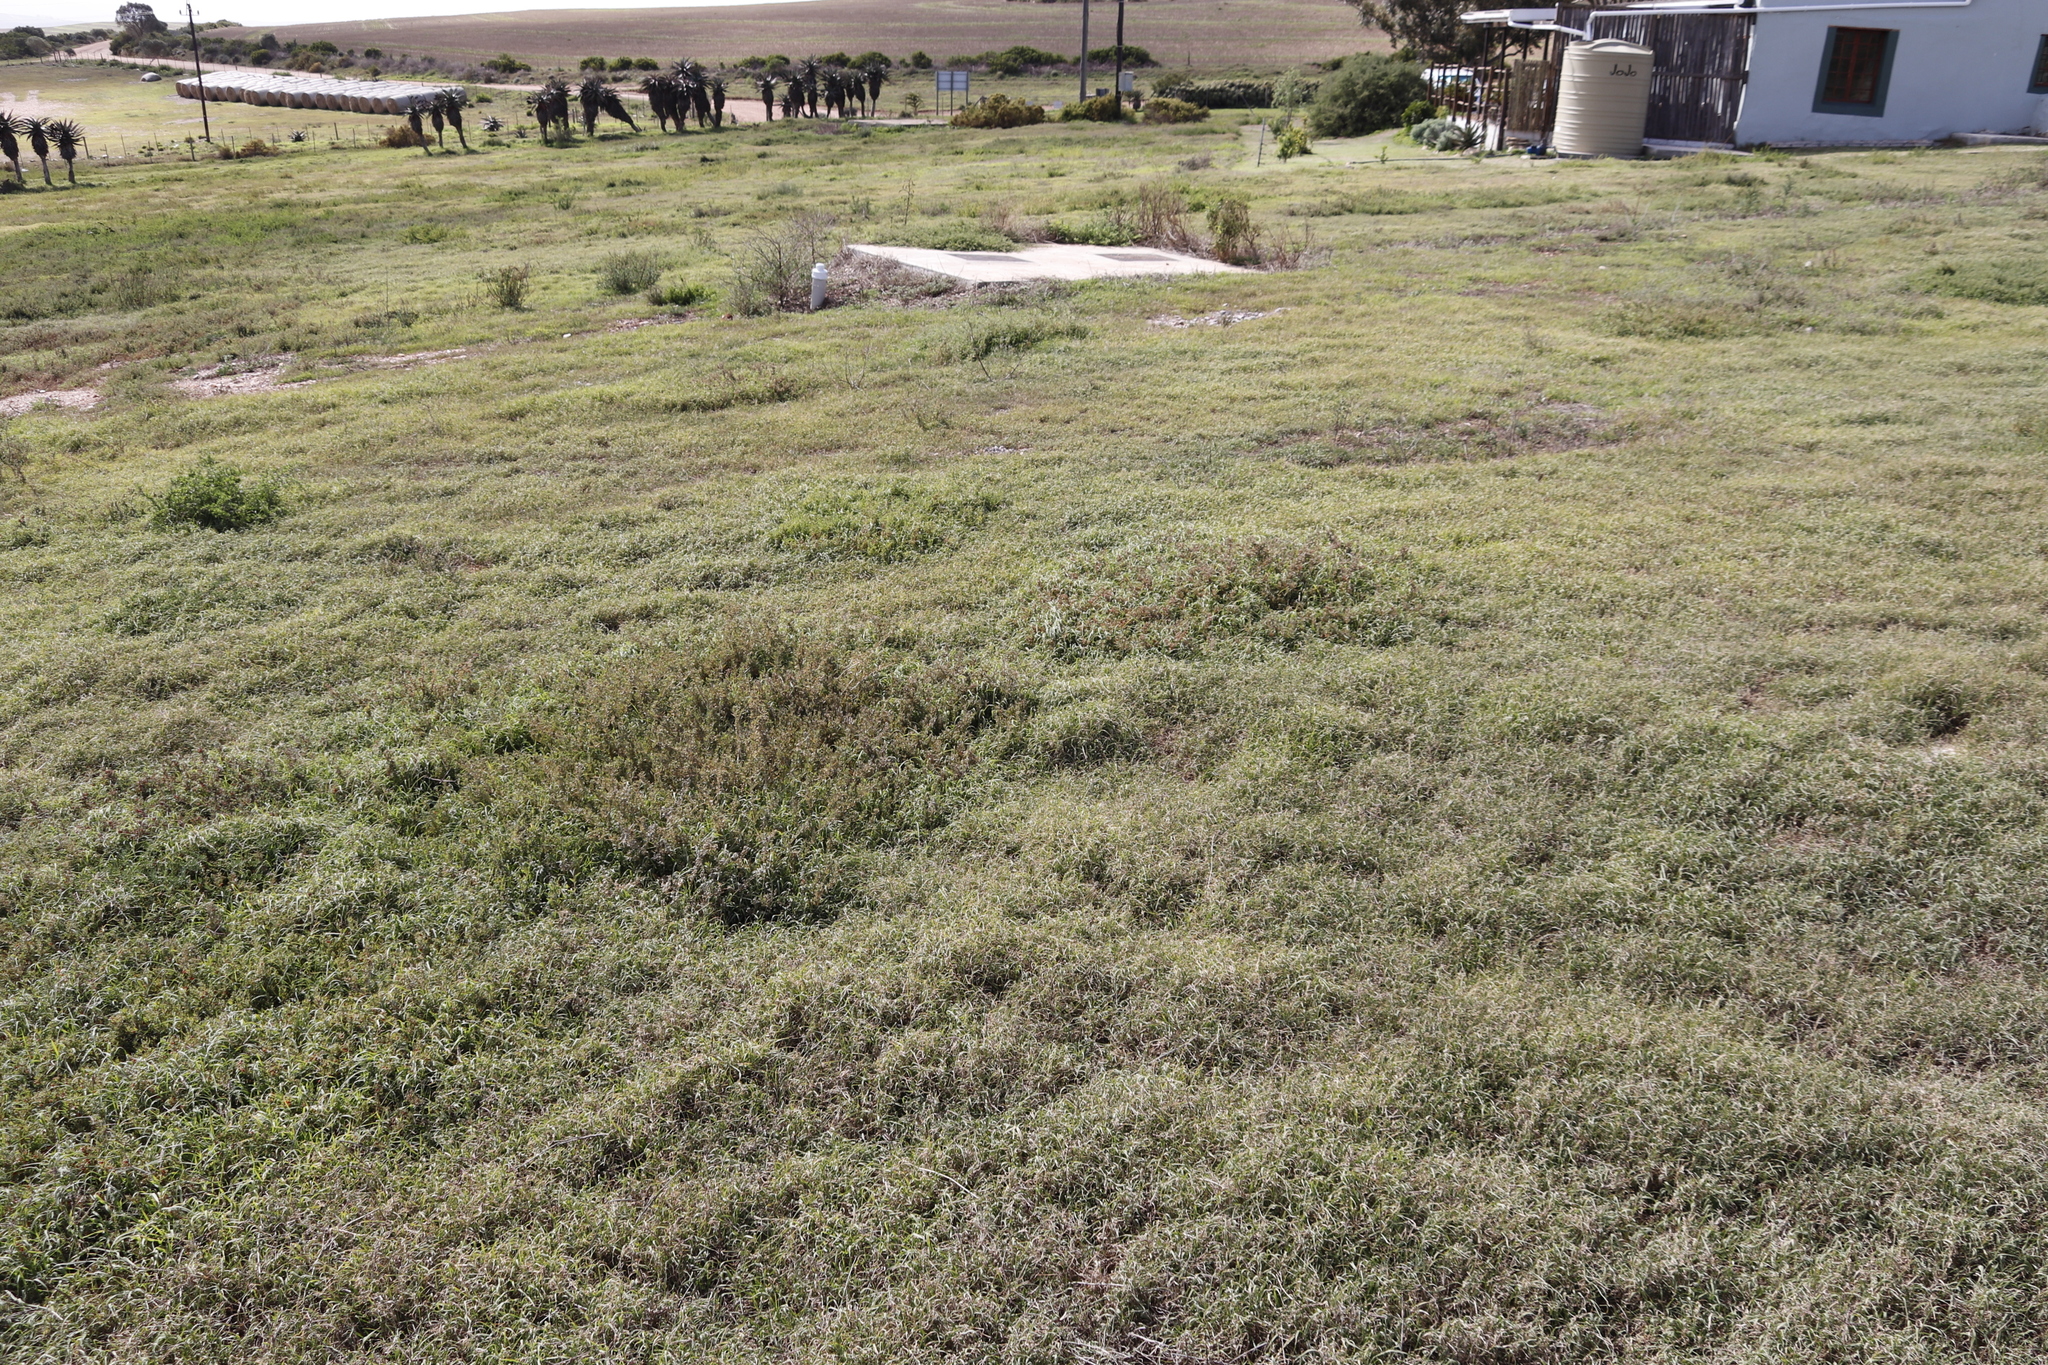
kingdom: Plantae
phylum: Tracheophyta
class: Magnoliopsida
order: Caryophyllales
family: Amaranthaceae
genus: Atriplex
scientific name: Atriplex semibaccata
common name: Australian saltbush
